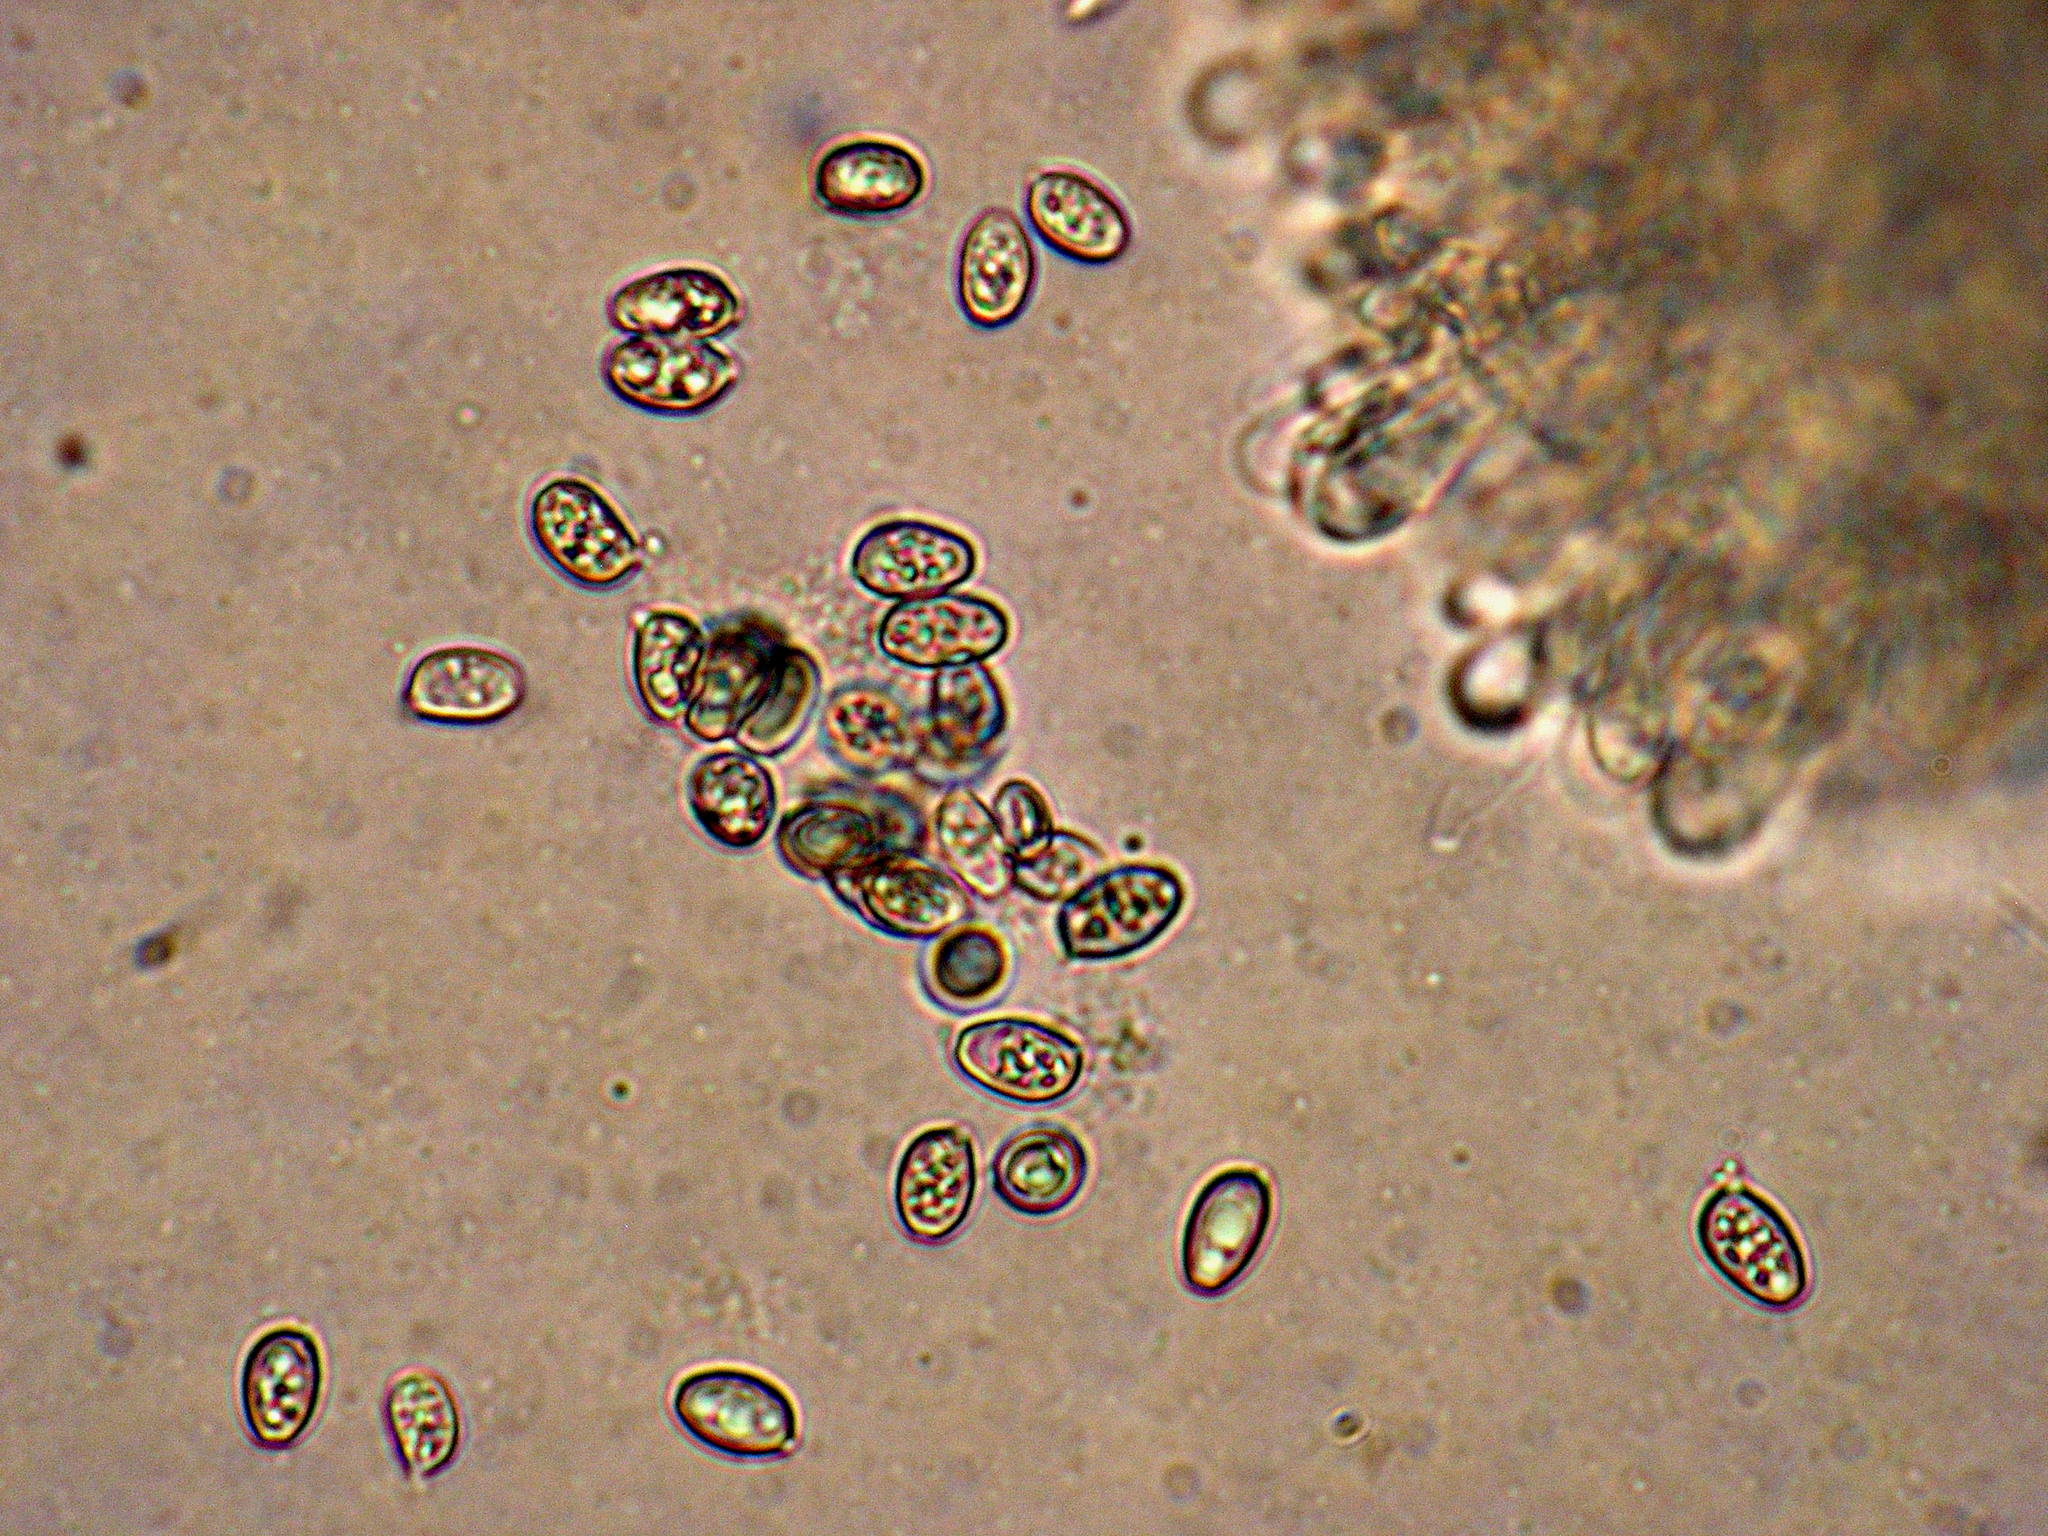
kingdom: Fungi
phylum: Basidiomycota
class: Agaricomycetes
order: Agaricales
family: Agaricaceae
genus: Chlorophyllum
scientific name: Chlorophyllum brunneum
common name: Brown parasol
